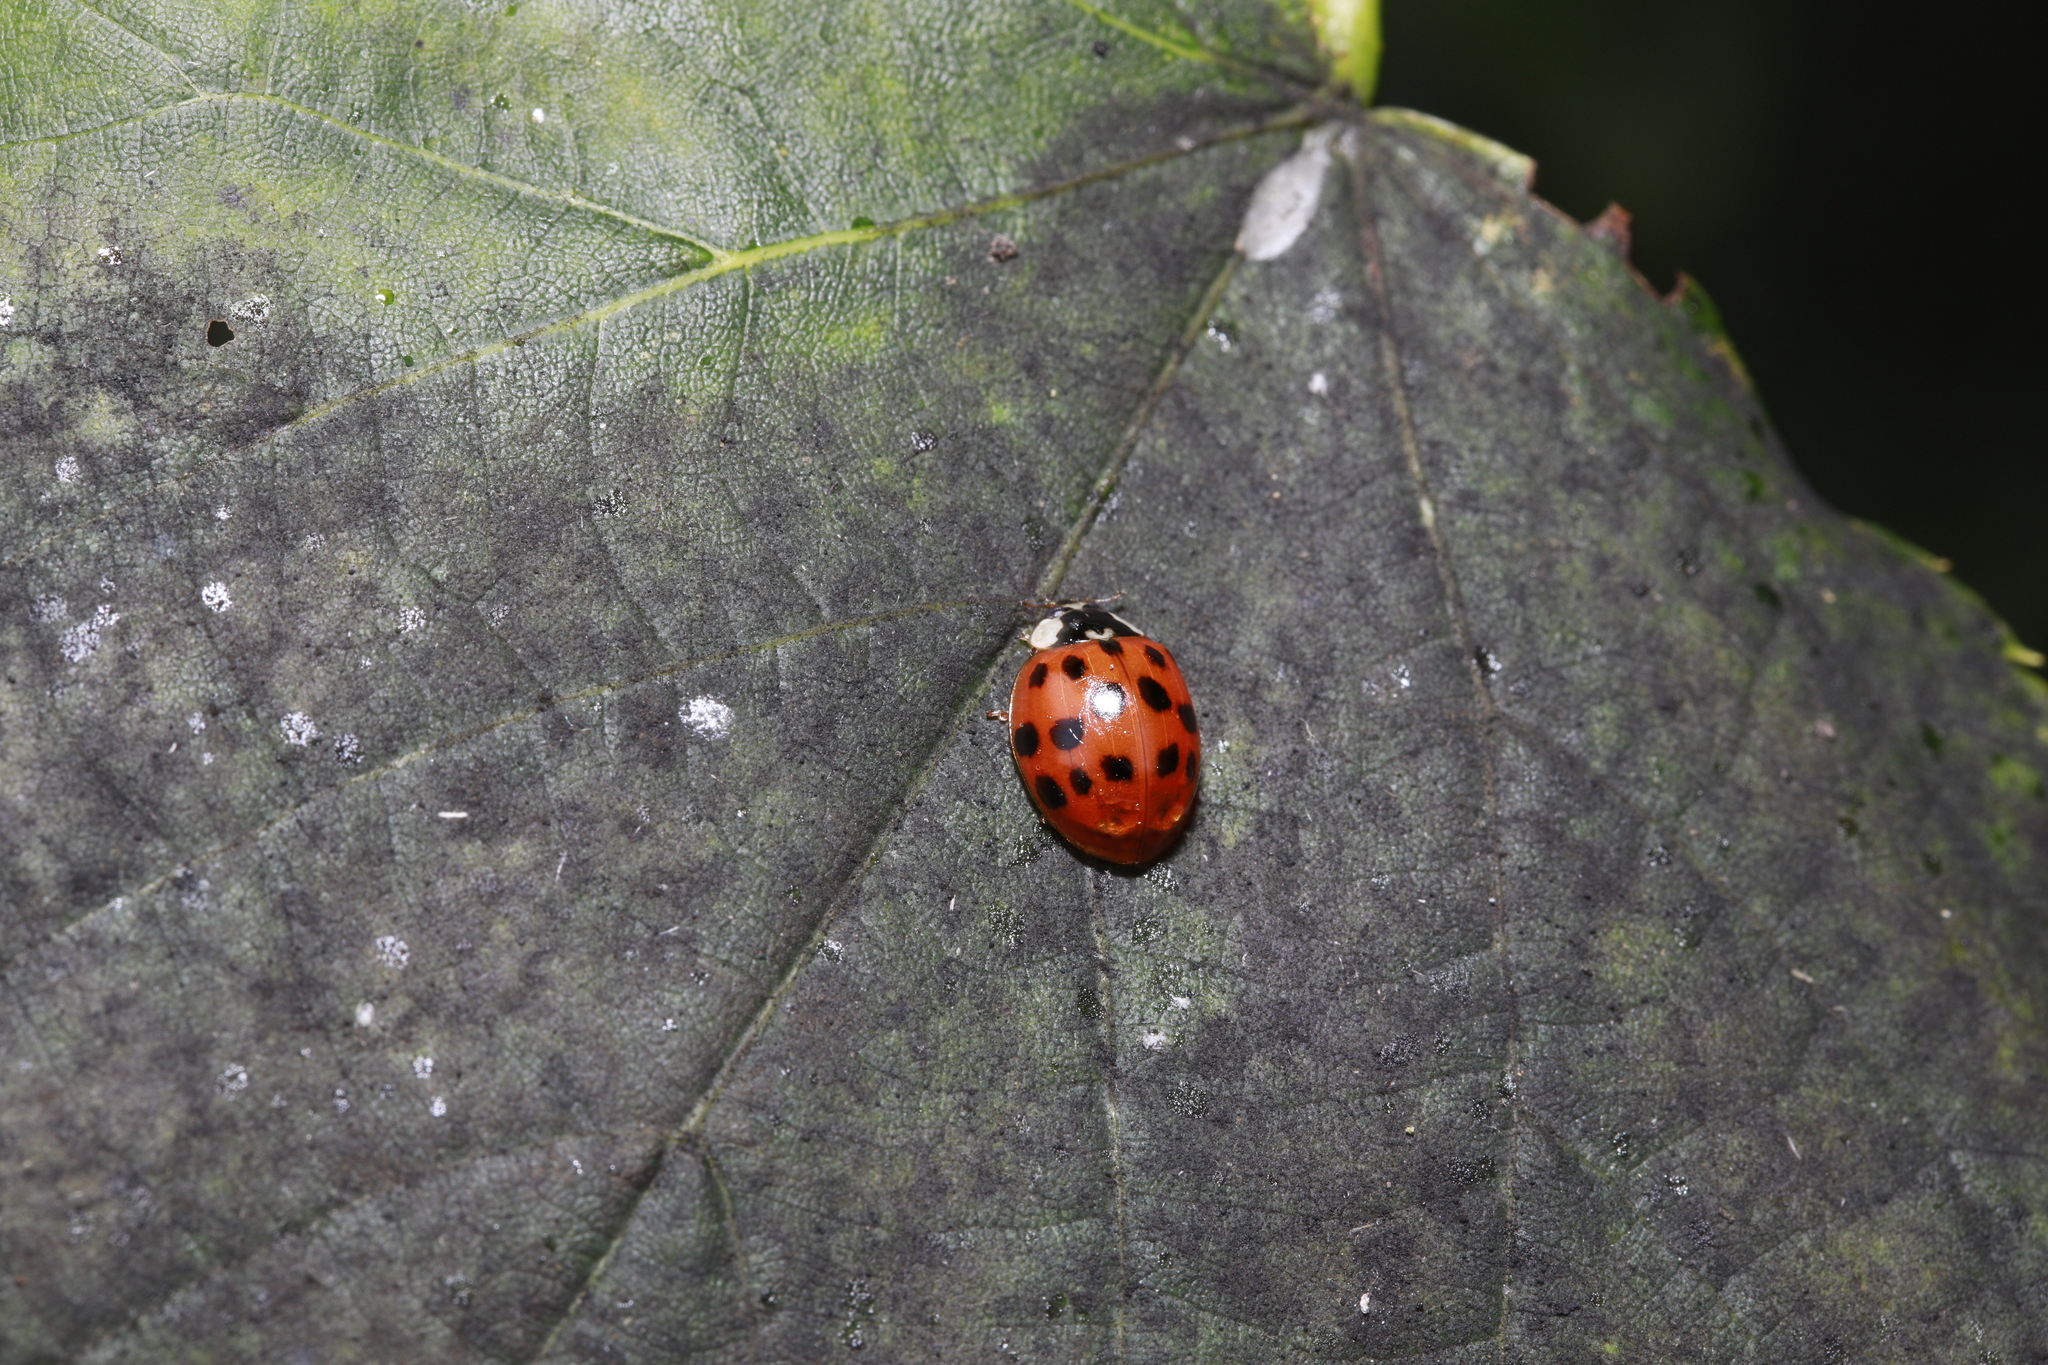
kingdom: Animalia
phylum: Arthropoda
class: Insecta
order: Coleoptera
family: Coccinellidae
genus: Harmonia
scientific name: Harmonia axyridis
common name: Harlequin ladybird
